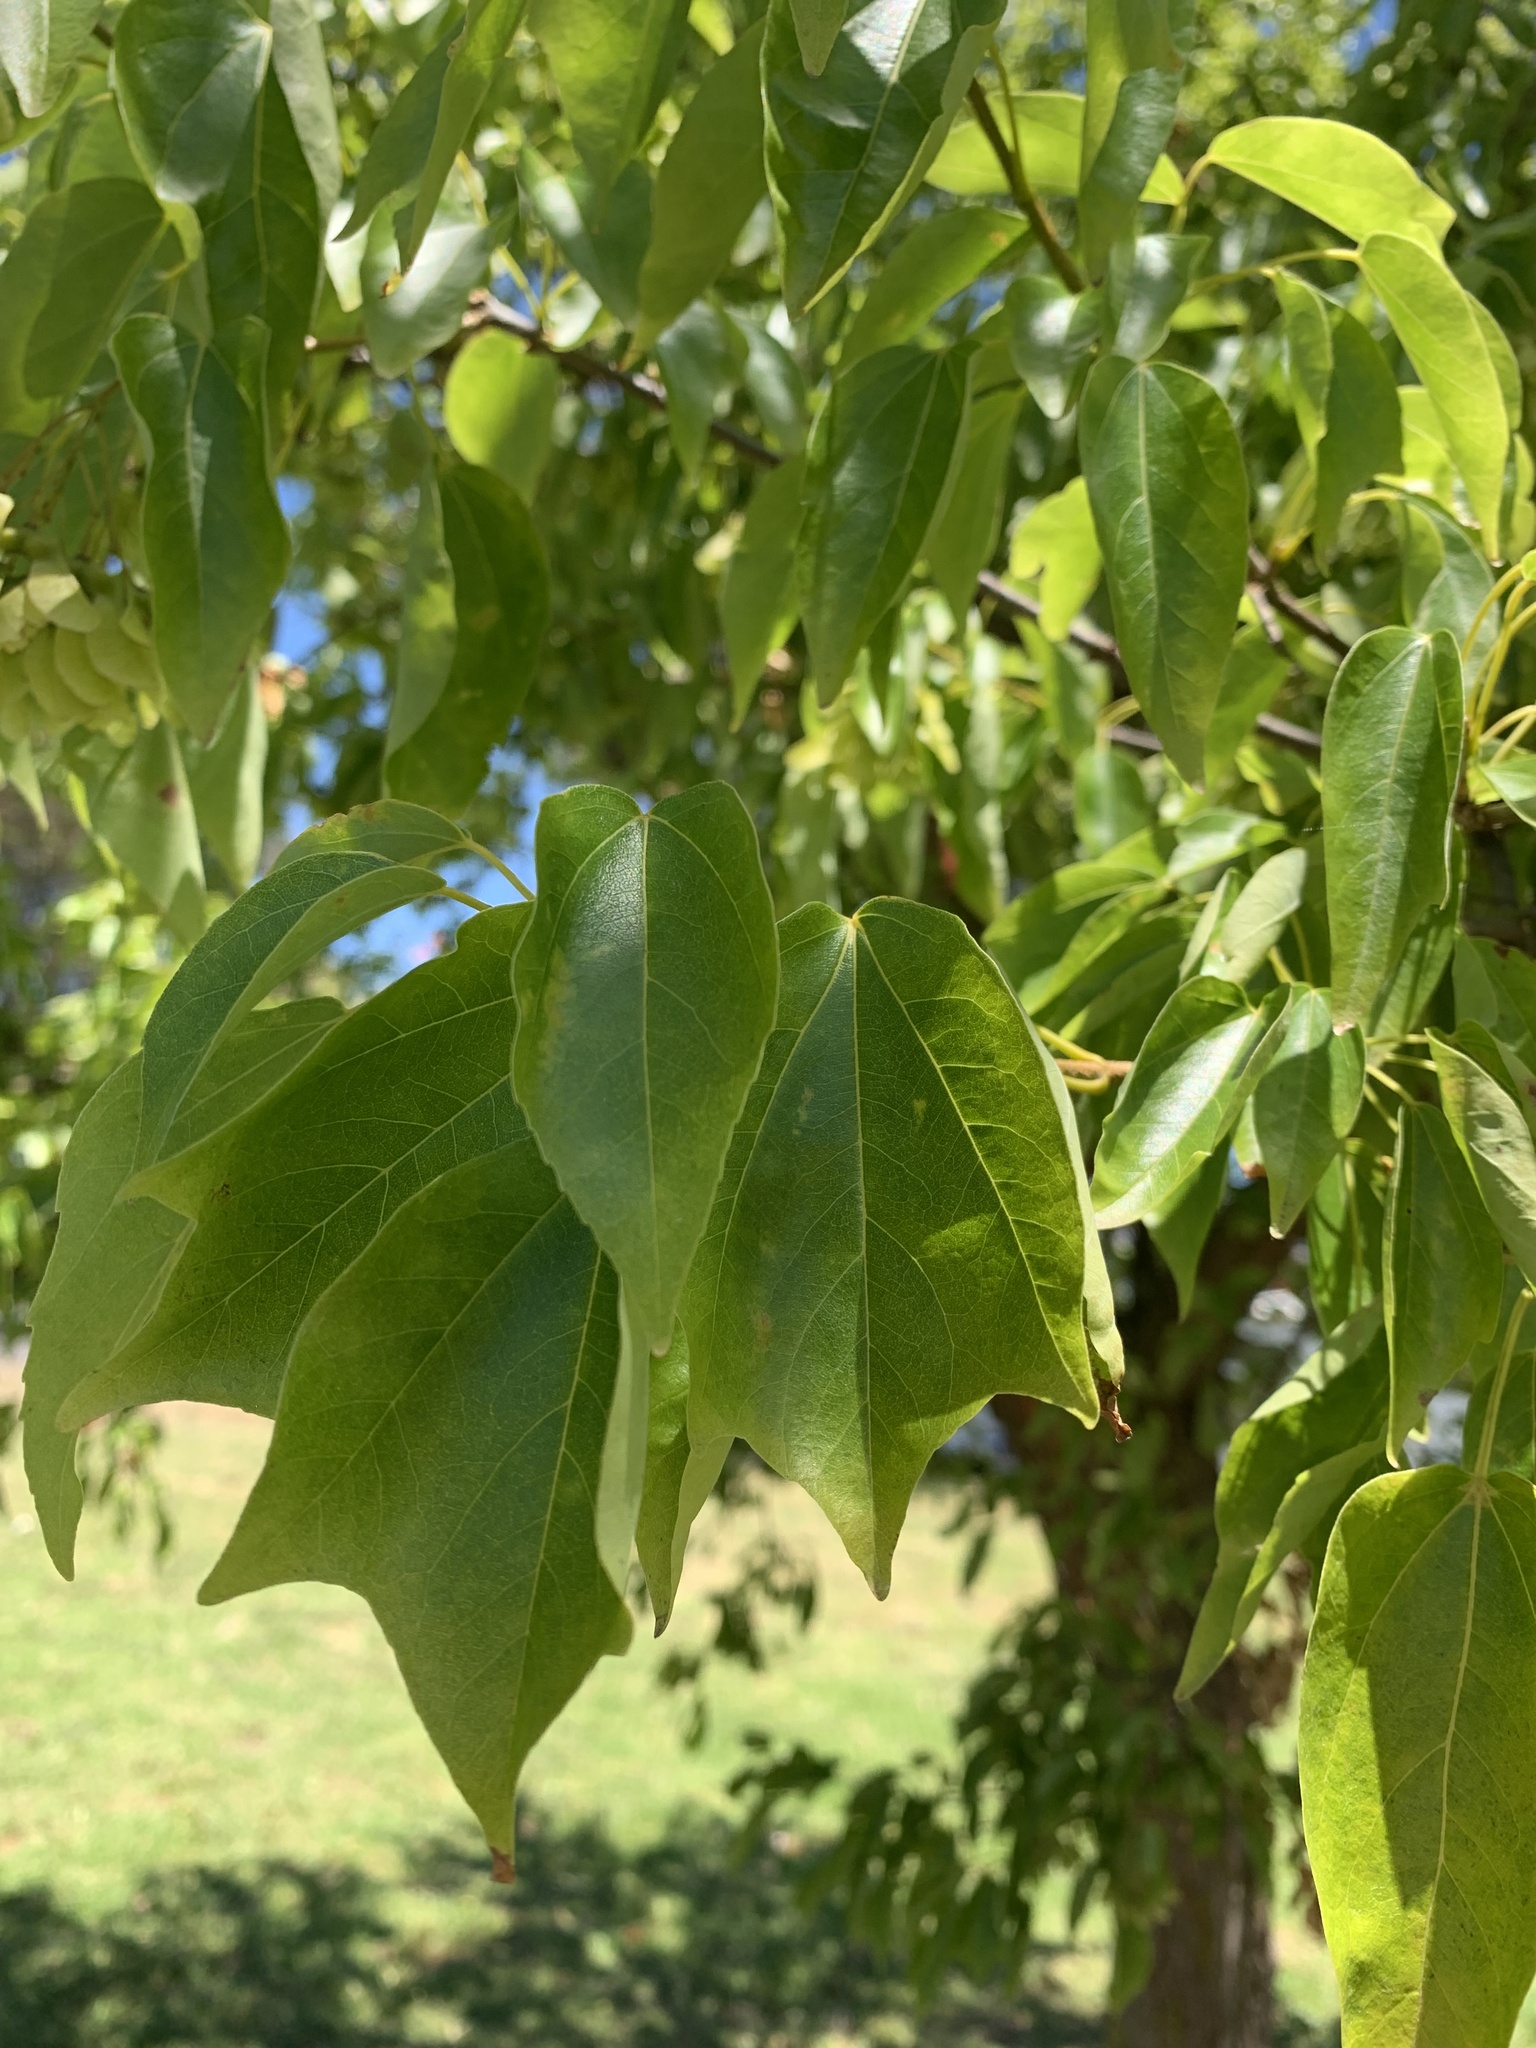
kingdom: Plantae
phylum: Tracheophyta
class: Magnoliopsida
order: Sapindales
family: Sapindaceae
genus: Acer
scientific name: Acer buergerianum
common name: Trident maple
